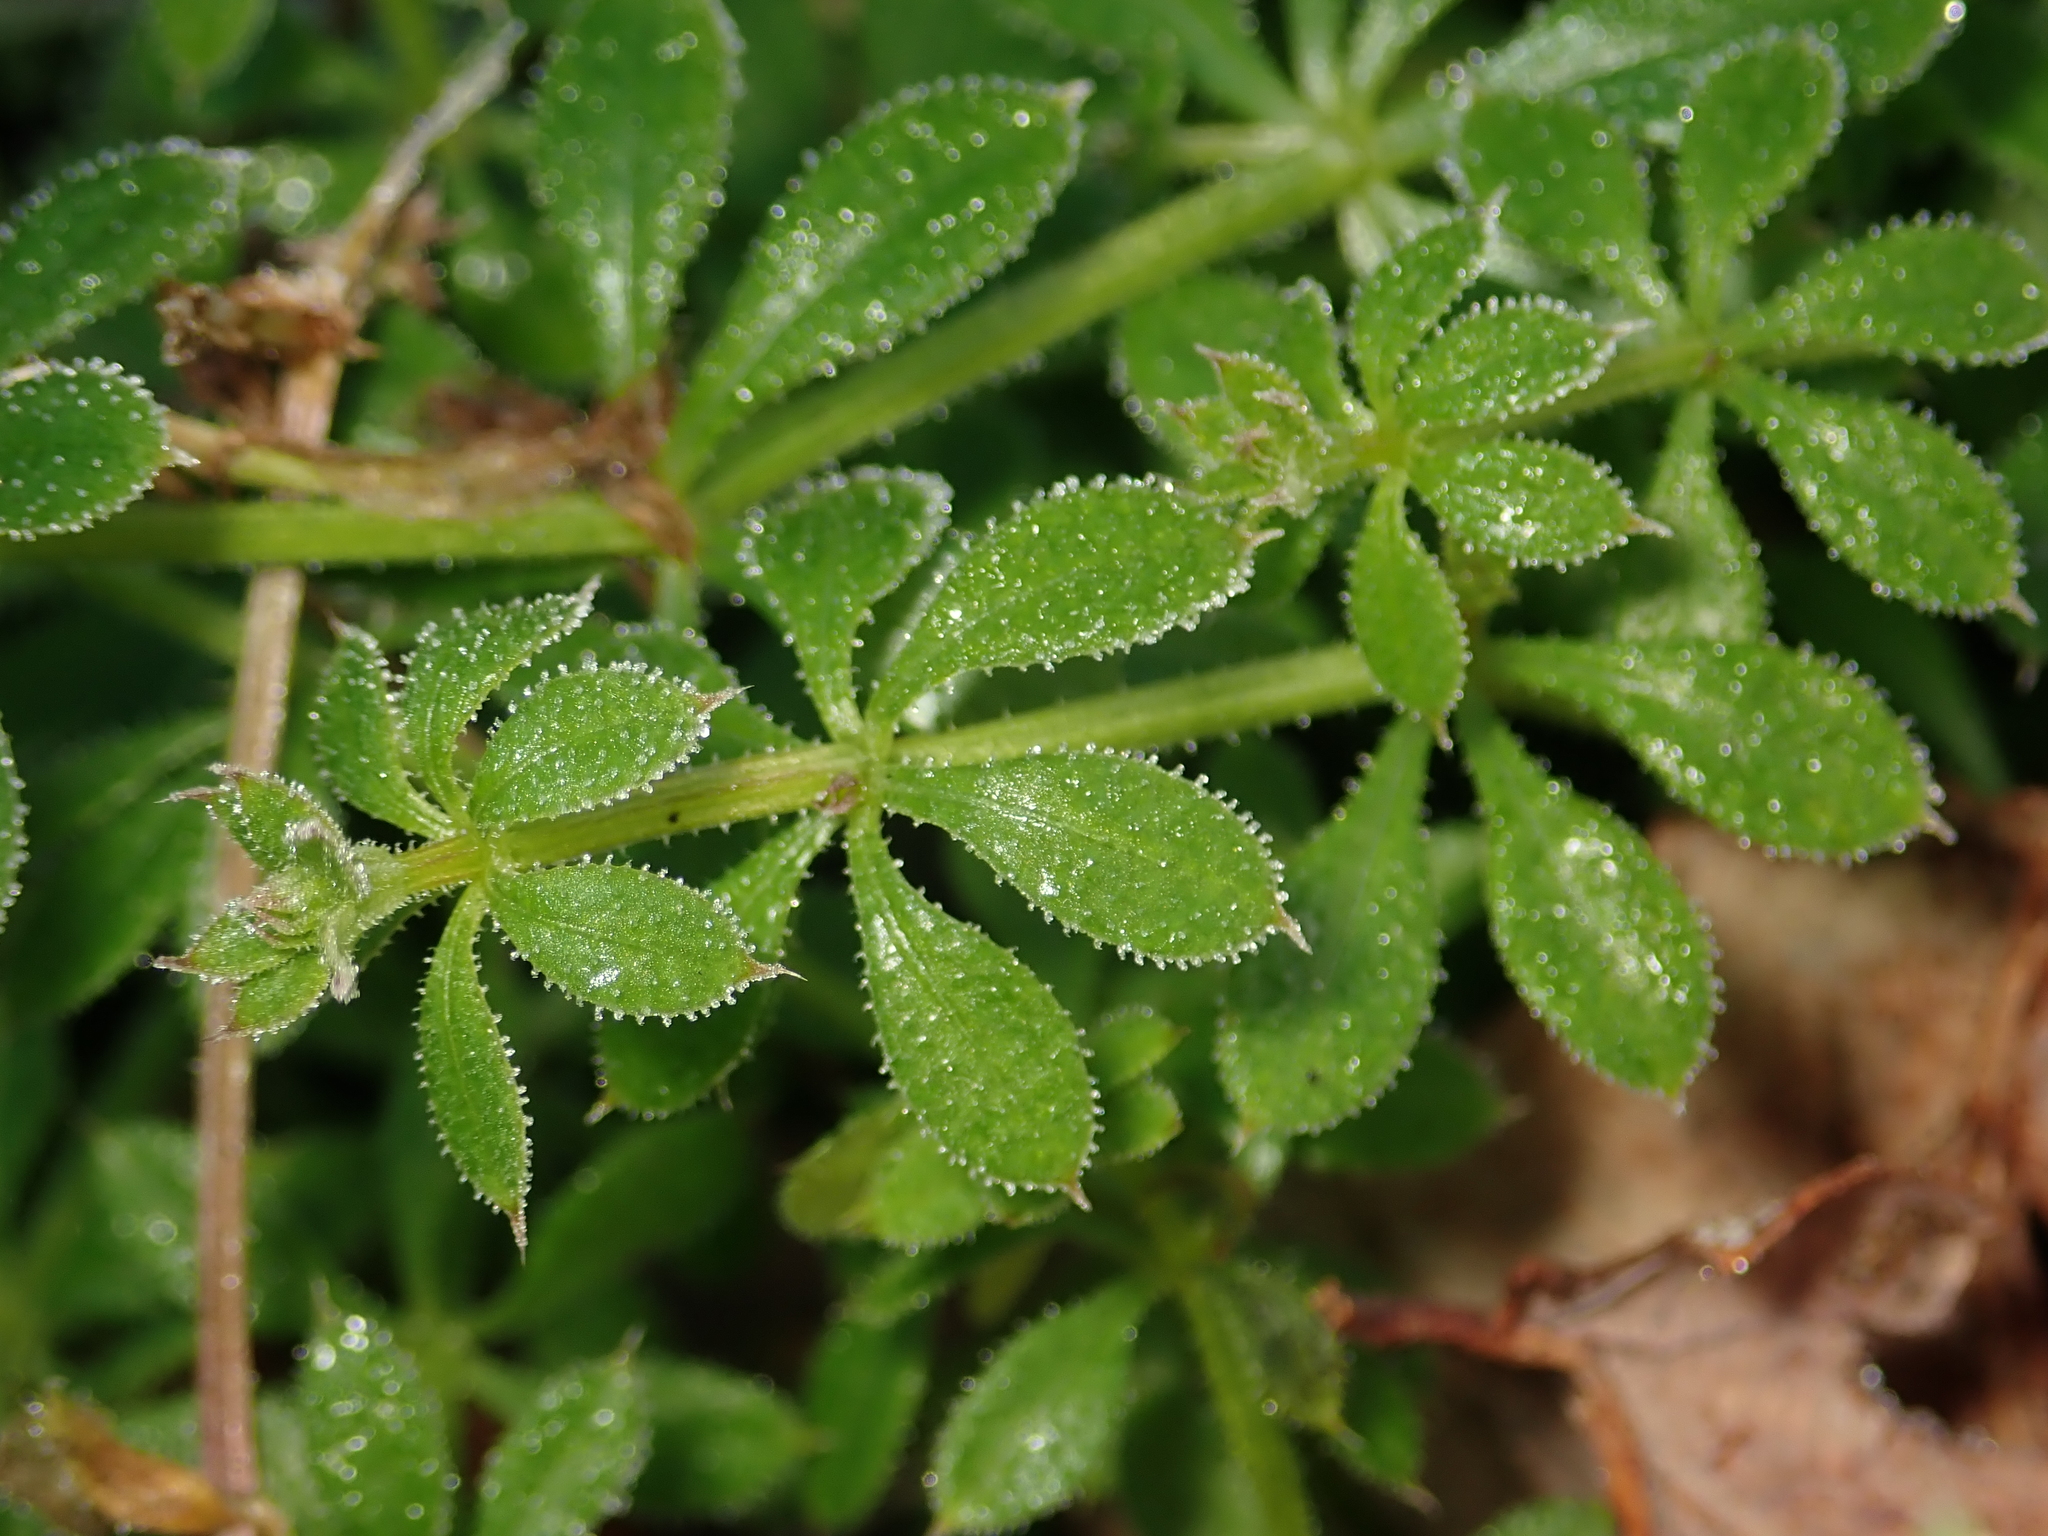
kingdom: Plantae
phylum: Tracheophyta
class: Magnoliopsida
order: Gentianales
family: Rubiaceae
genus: Galium
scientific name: Galium aparine
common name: Cleavers
